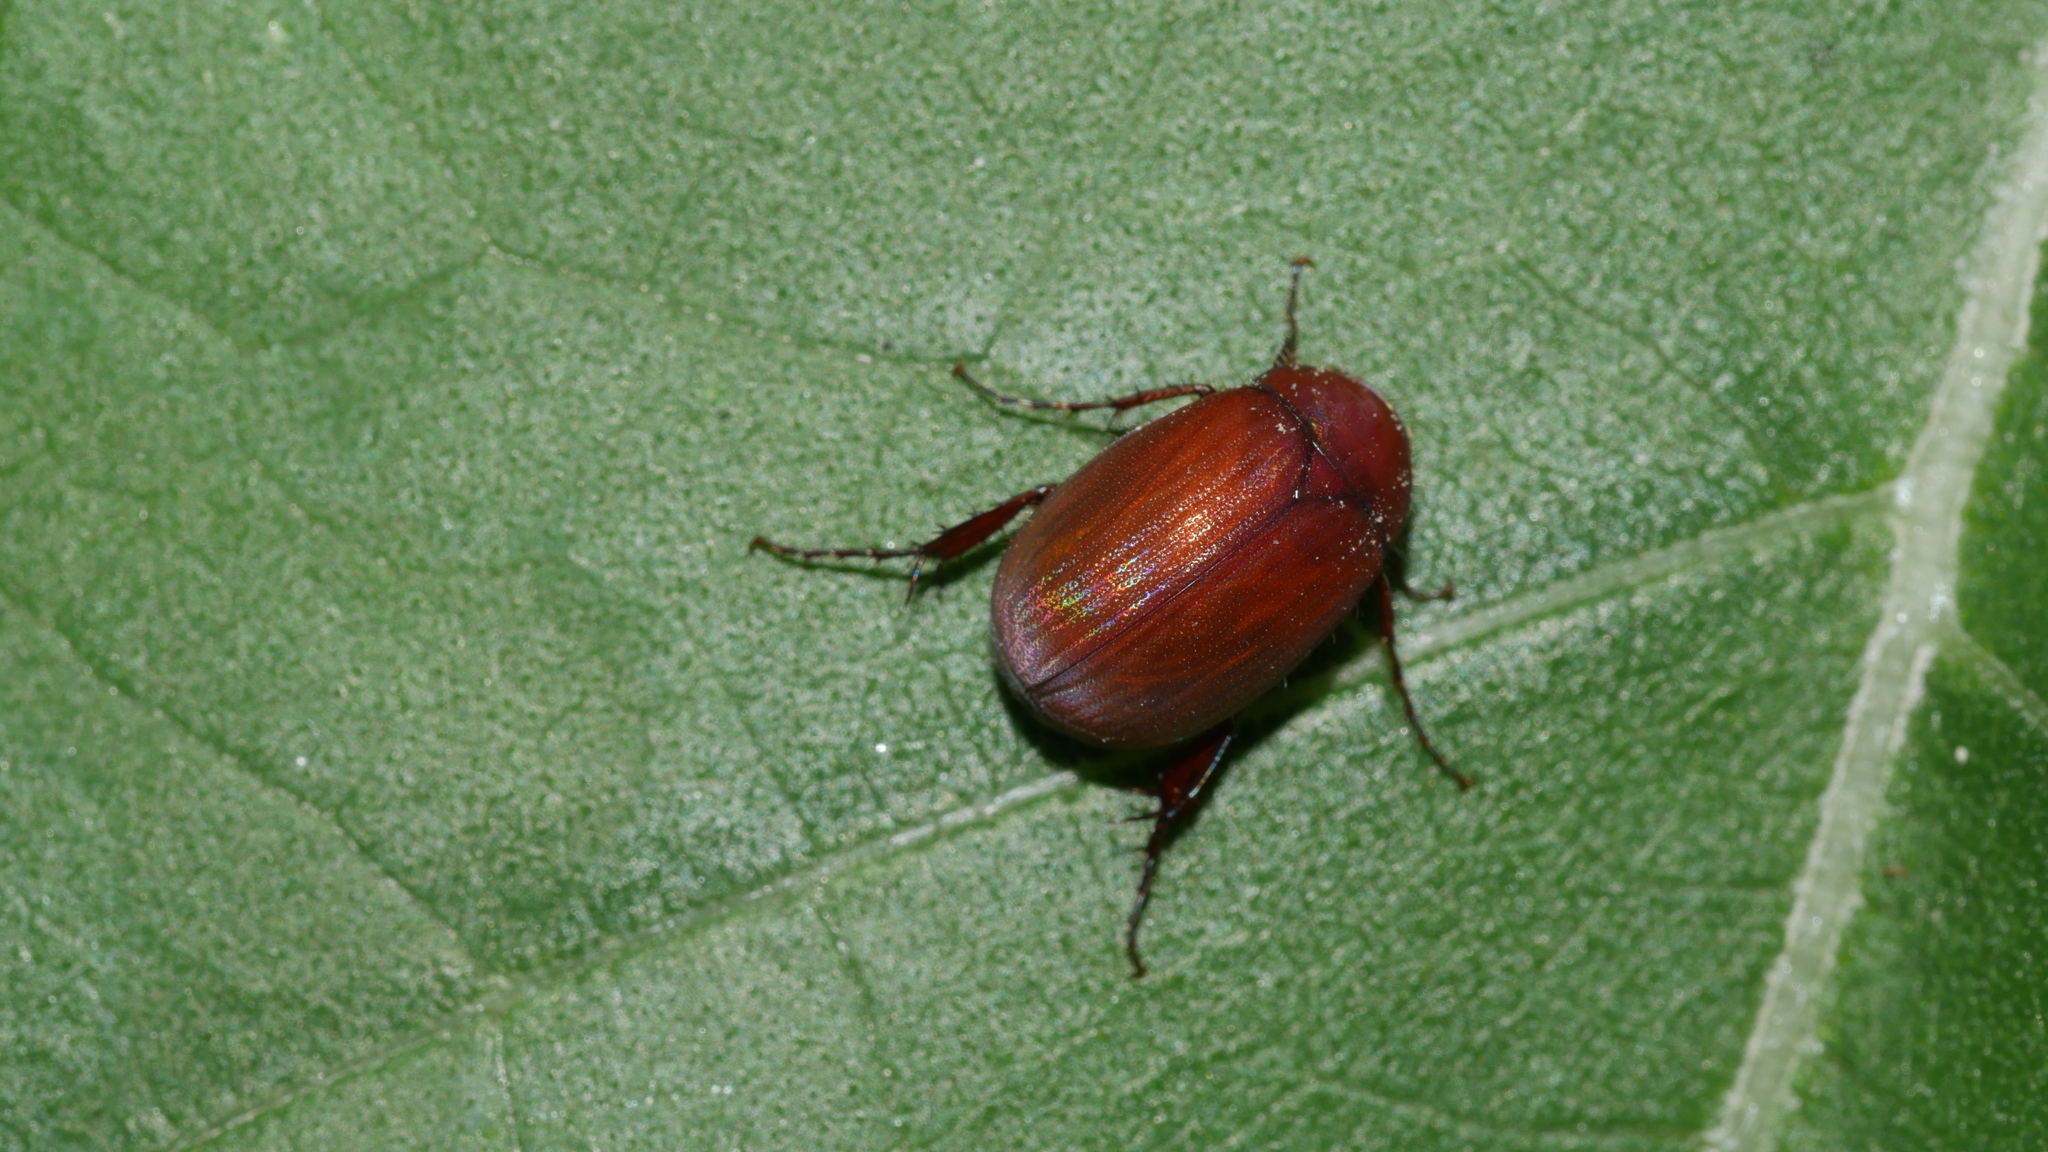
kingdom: Animalia
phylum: Arthropoda
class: Insecta
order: Coleoptera
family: Scarabaeidae
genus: Maladera
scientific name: Maladera formosae
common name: Asiatic garden beetle
